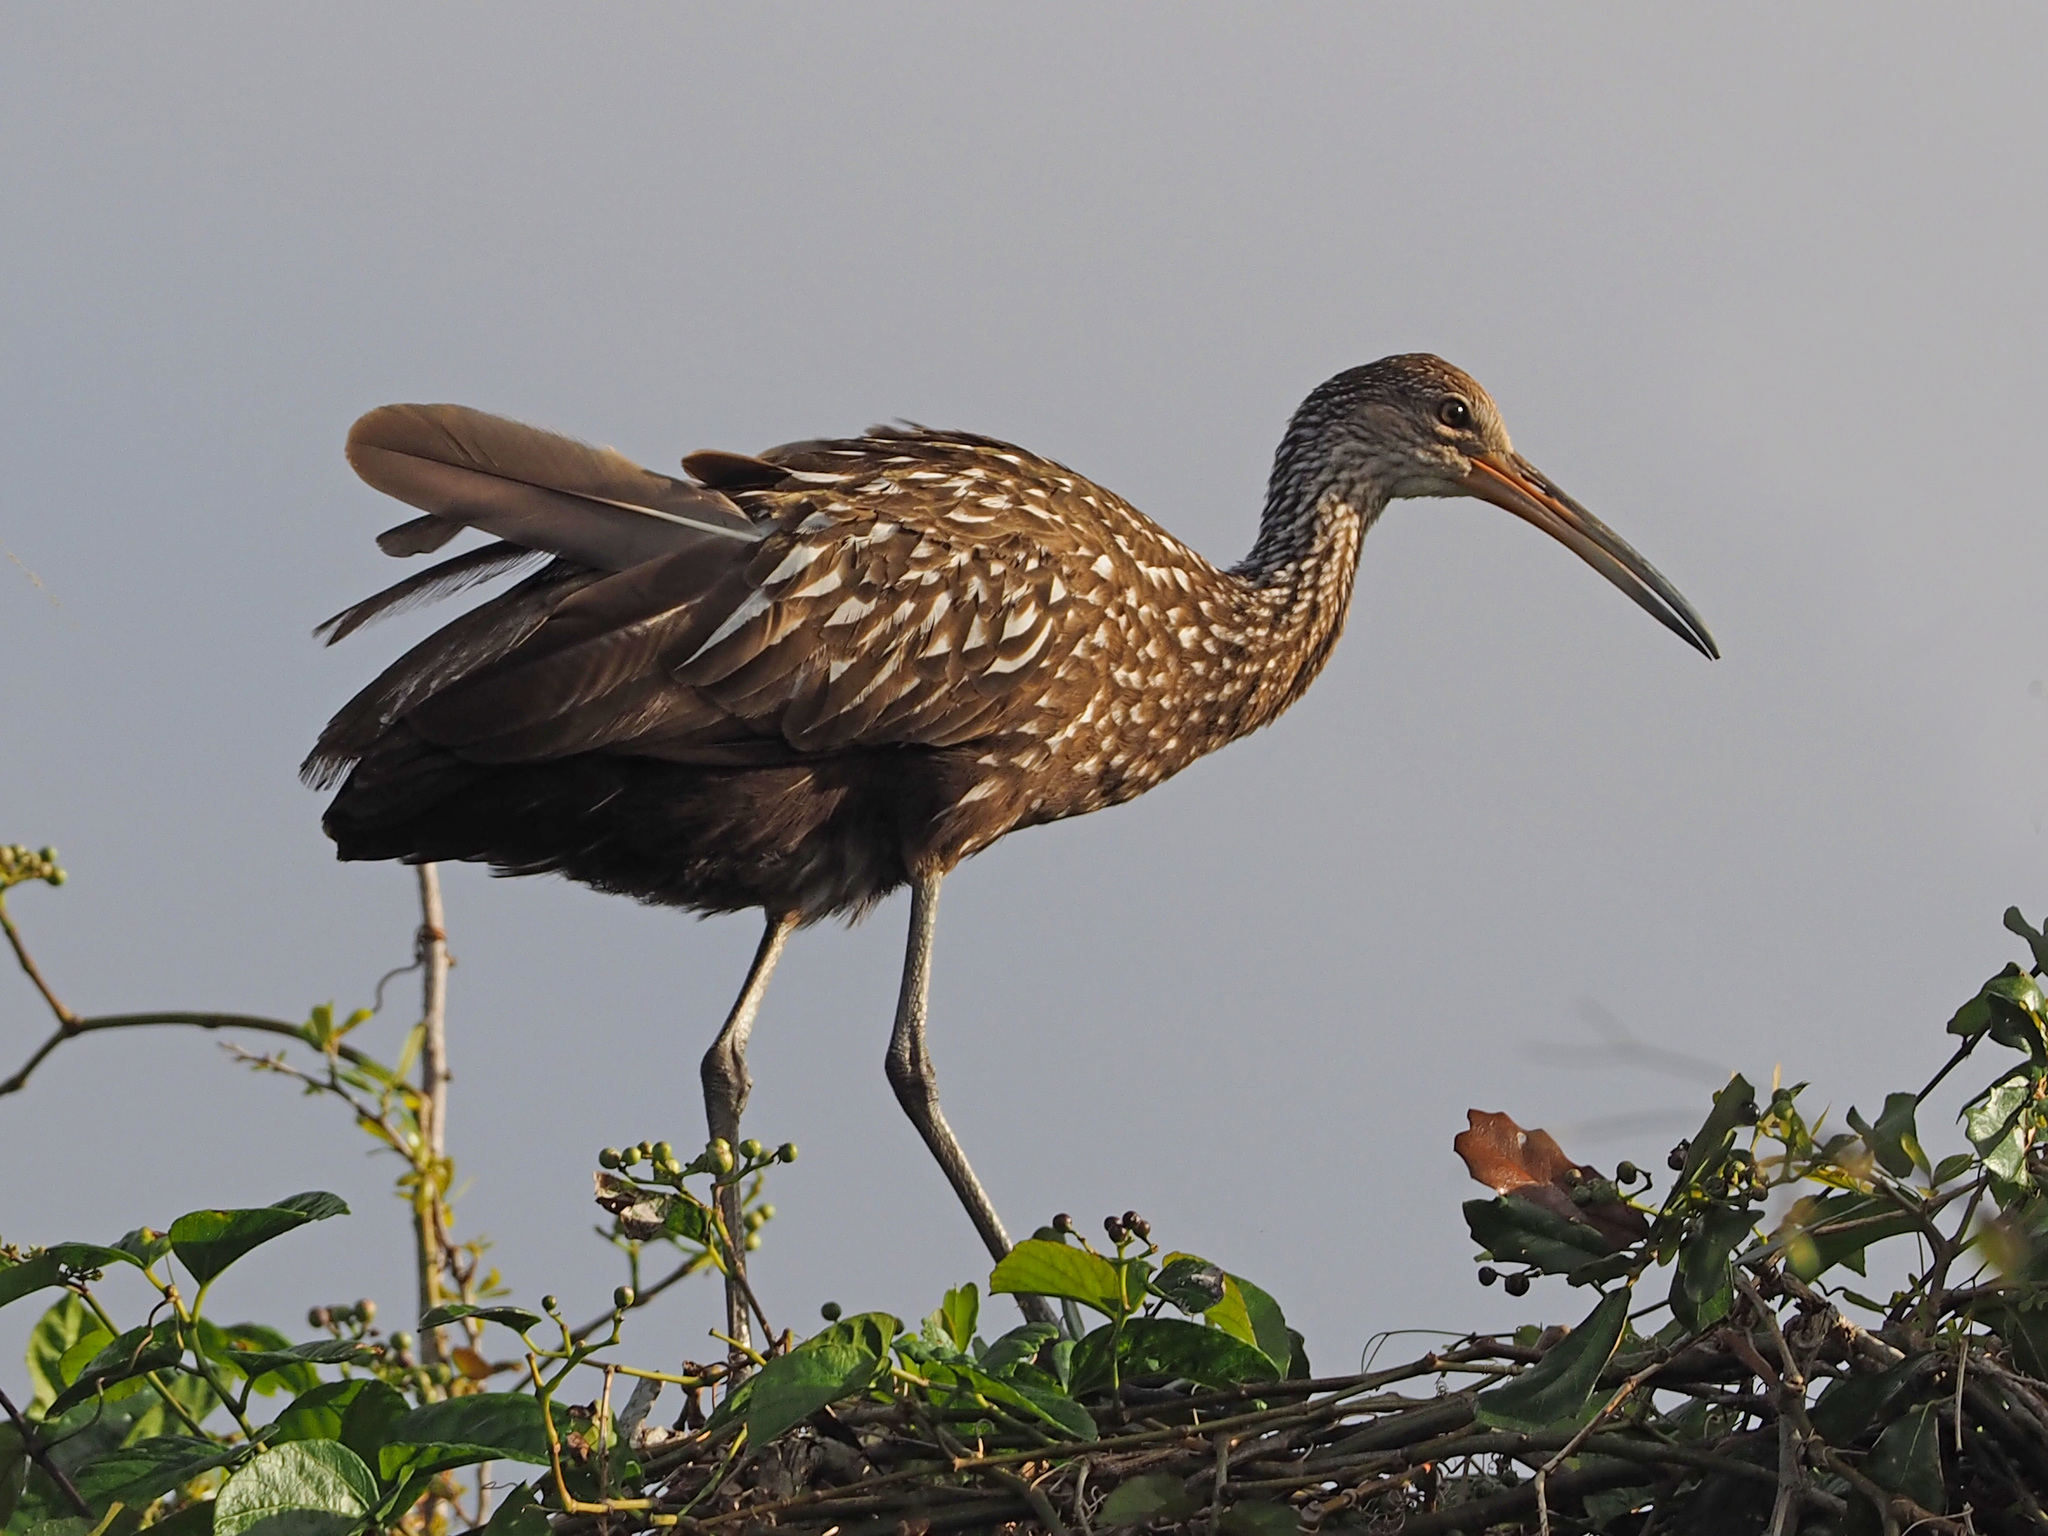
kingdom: Animalia
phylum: Chordata
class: Aves
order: Gruiformes
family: Aramidae
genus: Aramus
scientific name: Aramus guarauna
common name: Limpkin
